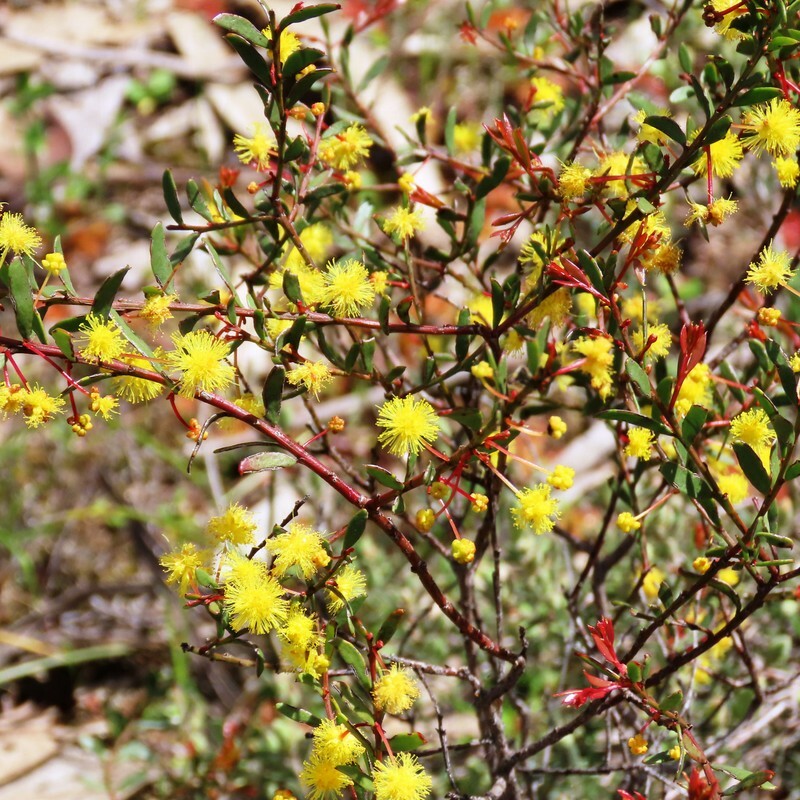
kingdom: Plantae
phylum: Tracheophyta
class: Magnoliopsida
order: Fabales
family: Fabaceae
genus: Acacia
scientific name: Acacia acinacea
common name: Gold-dust acacia
